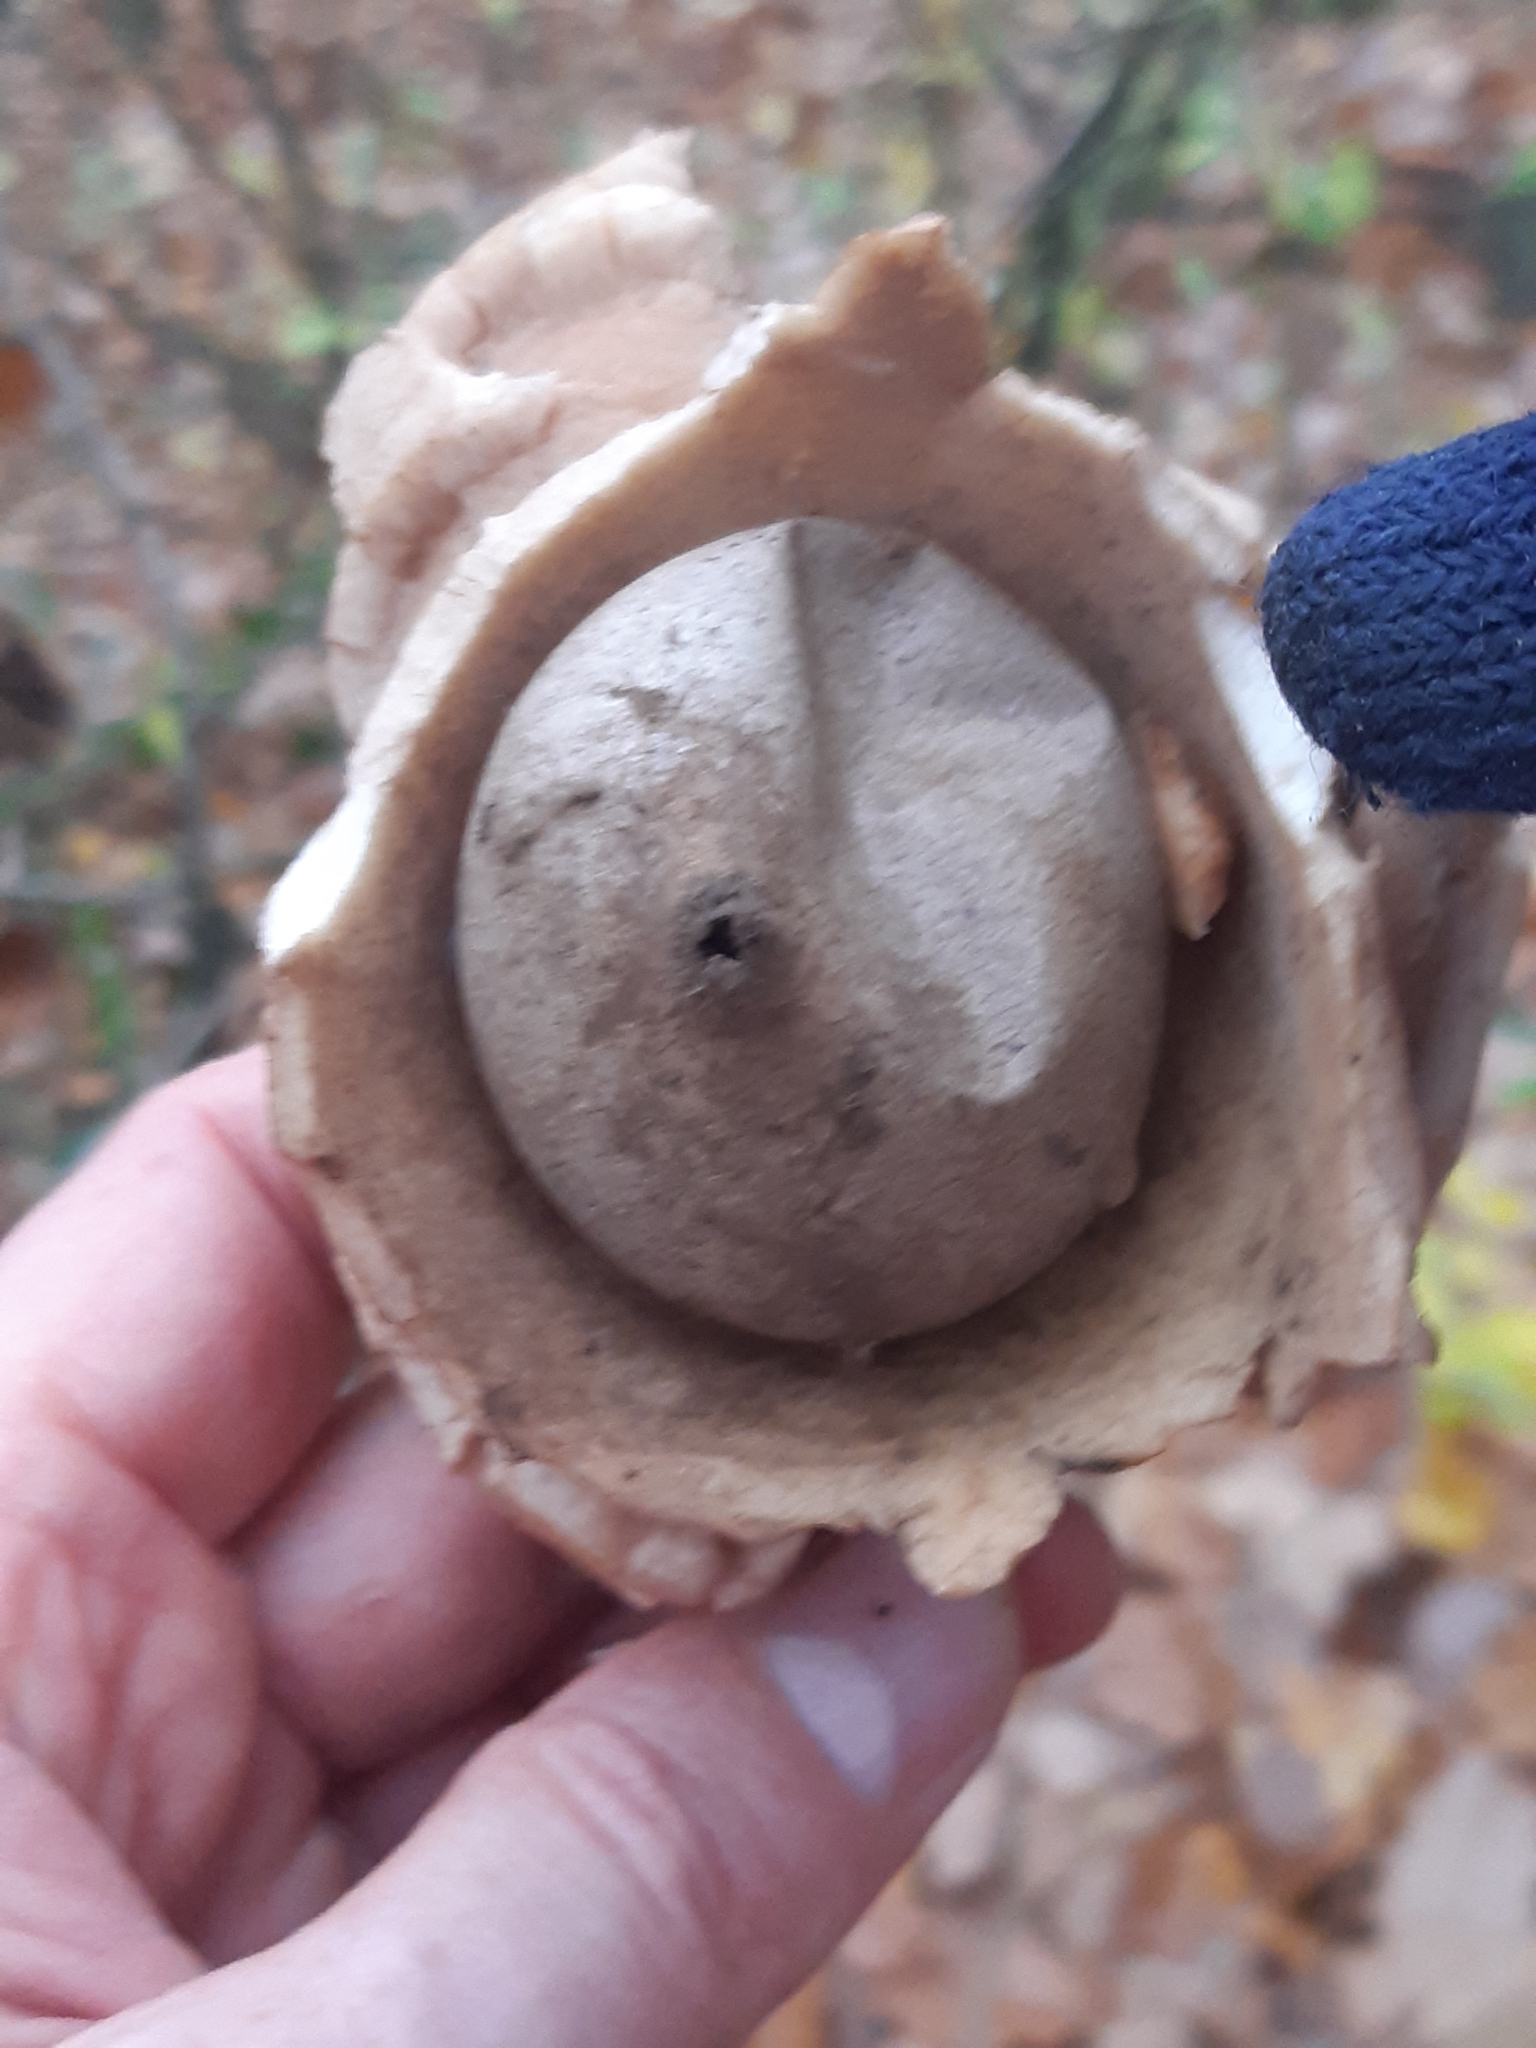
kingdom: Fungi
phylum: Basidiomycota
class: Agaricomycetes
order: Geastrales
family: Geastraceae
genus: Geastrum
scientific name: Geastrum triplex
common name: Collared earthstar
